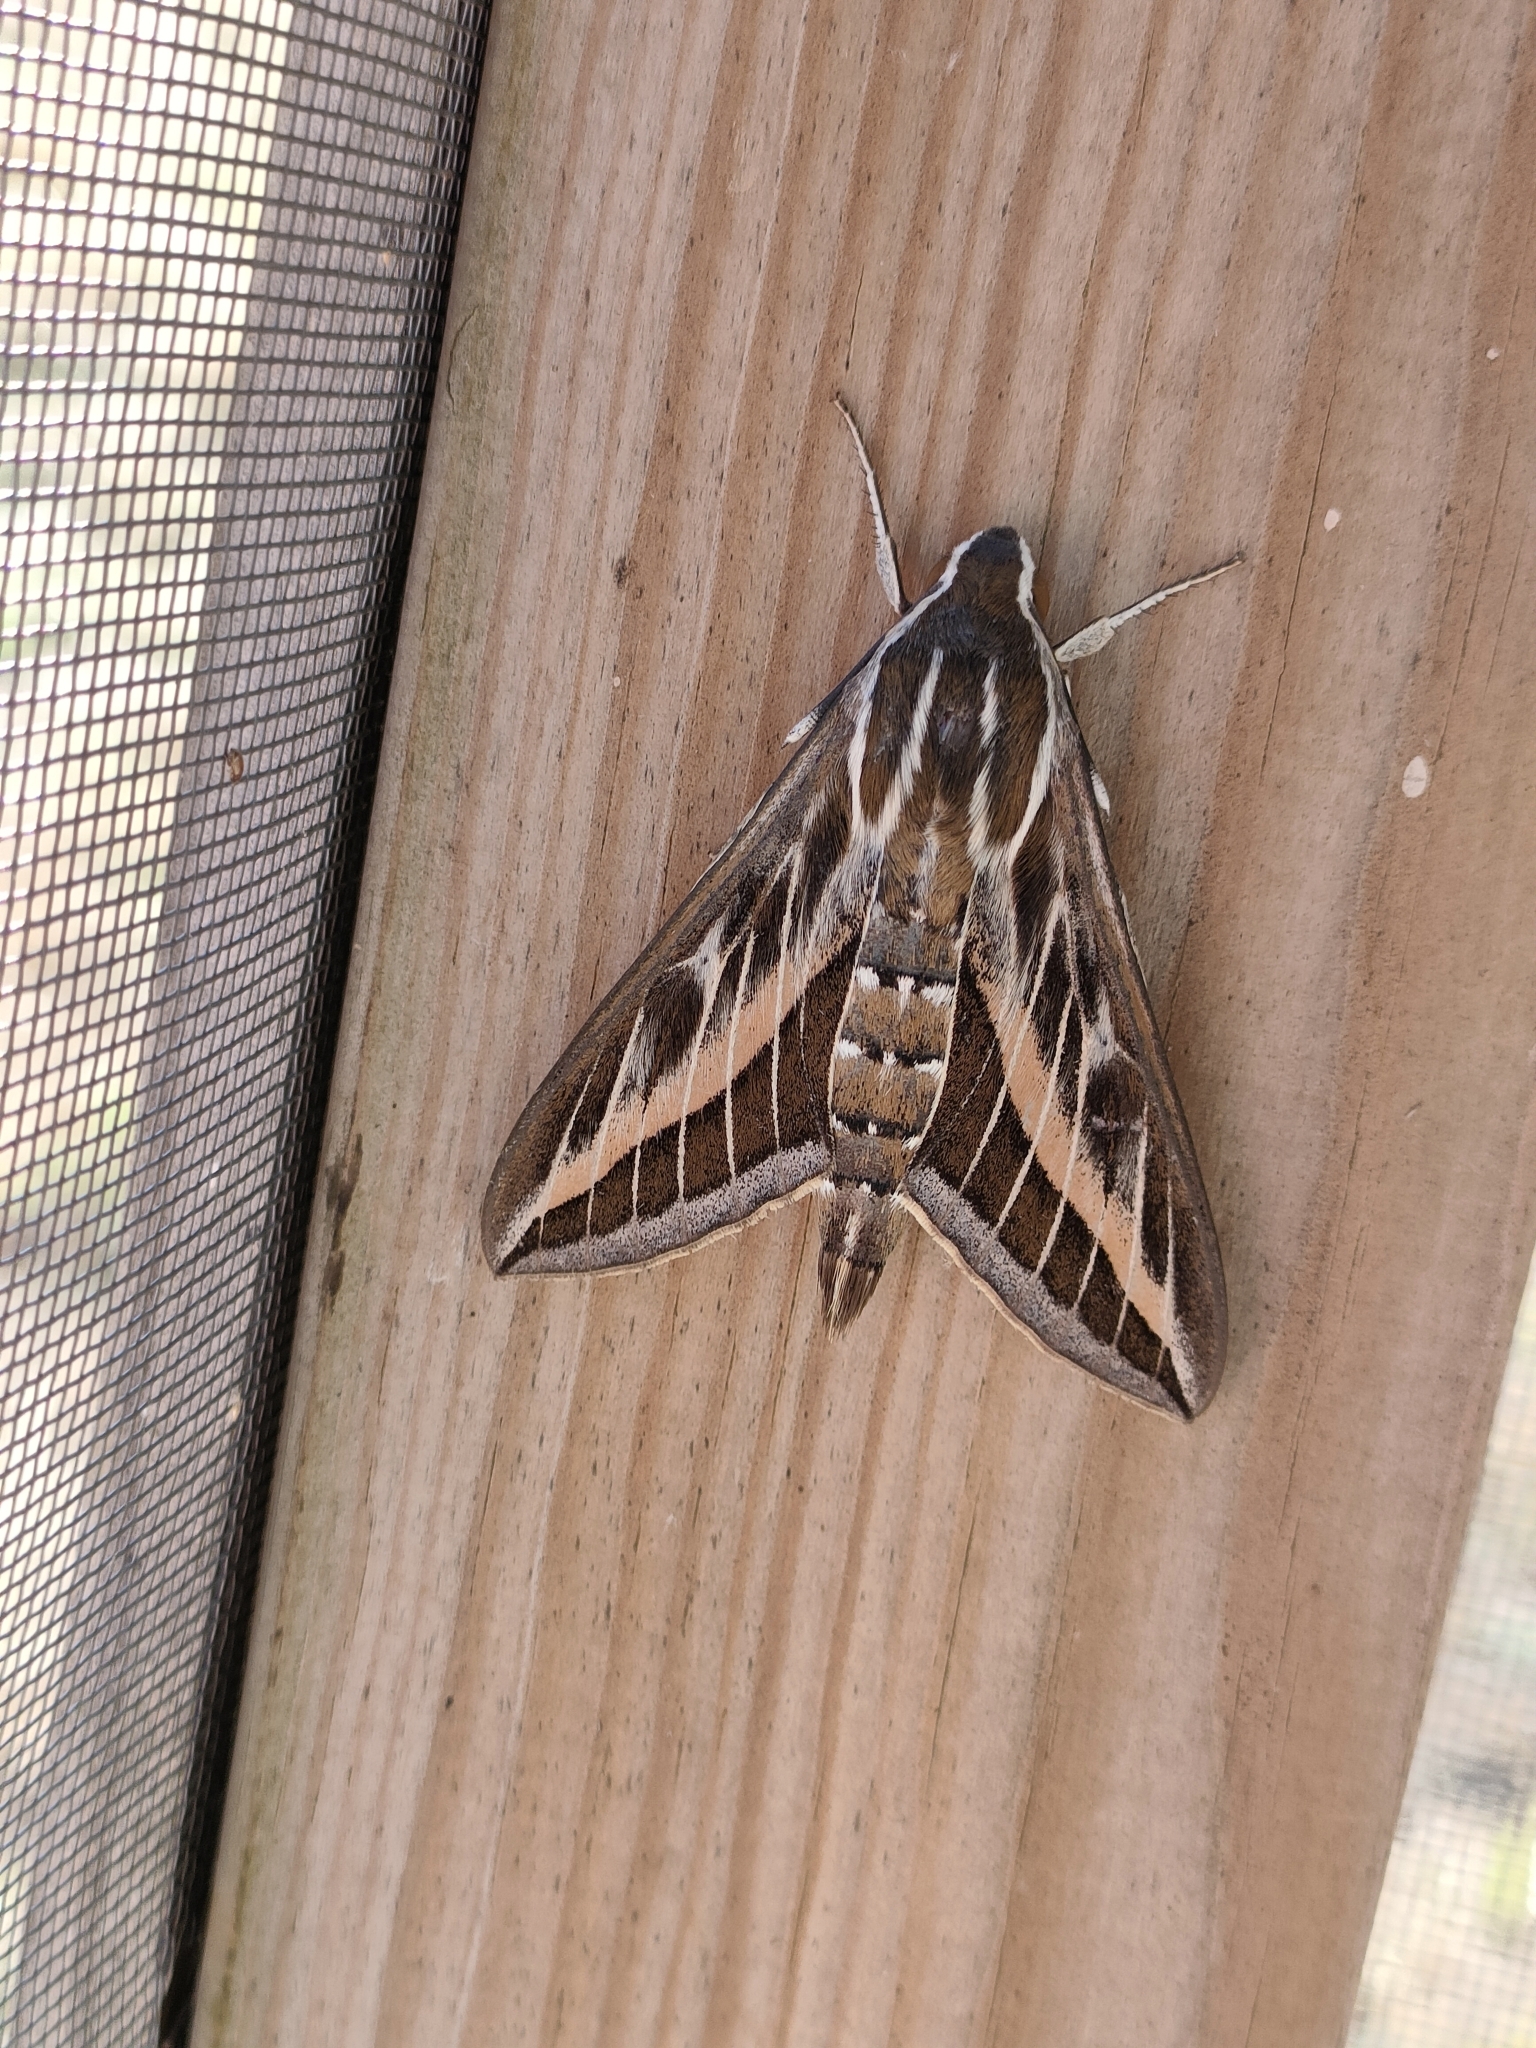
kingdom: Animalia
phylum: Arthropoda
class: Insecta
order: Lepidoptera
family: Sphingidae
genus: Hyles
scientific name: Hyles livornica
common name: Striped hawk-moth
